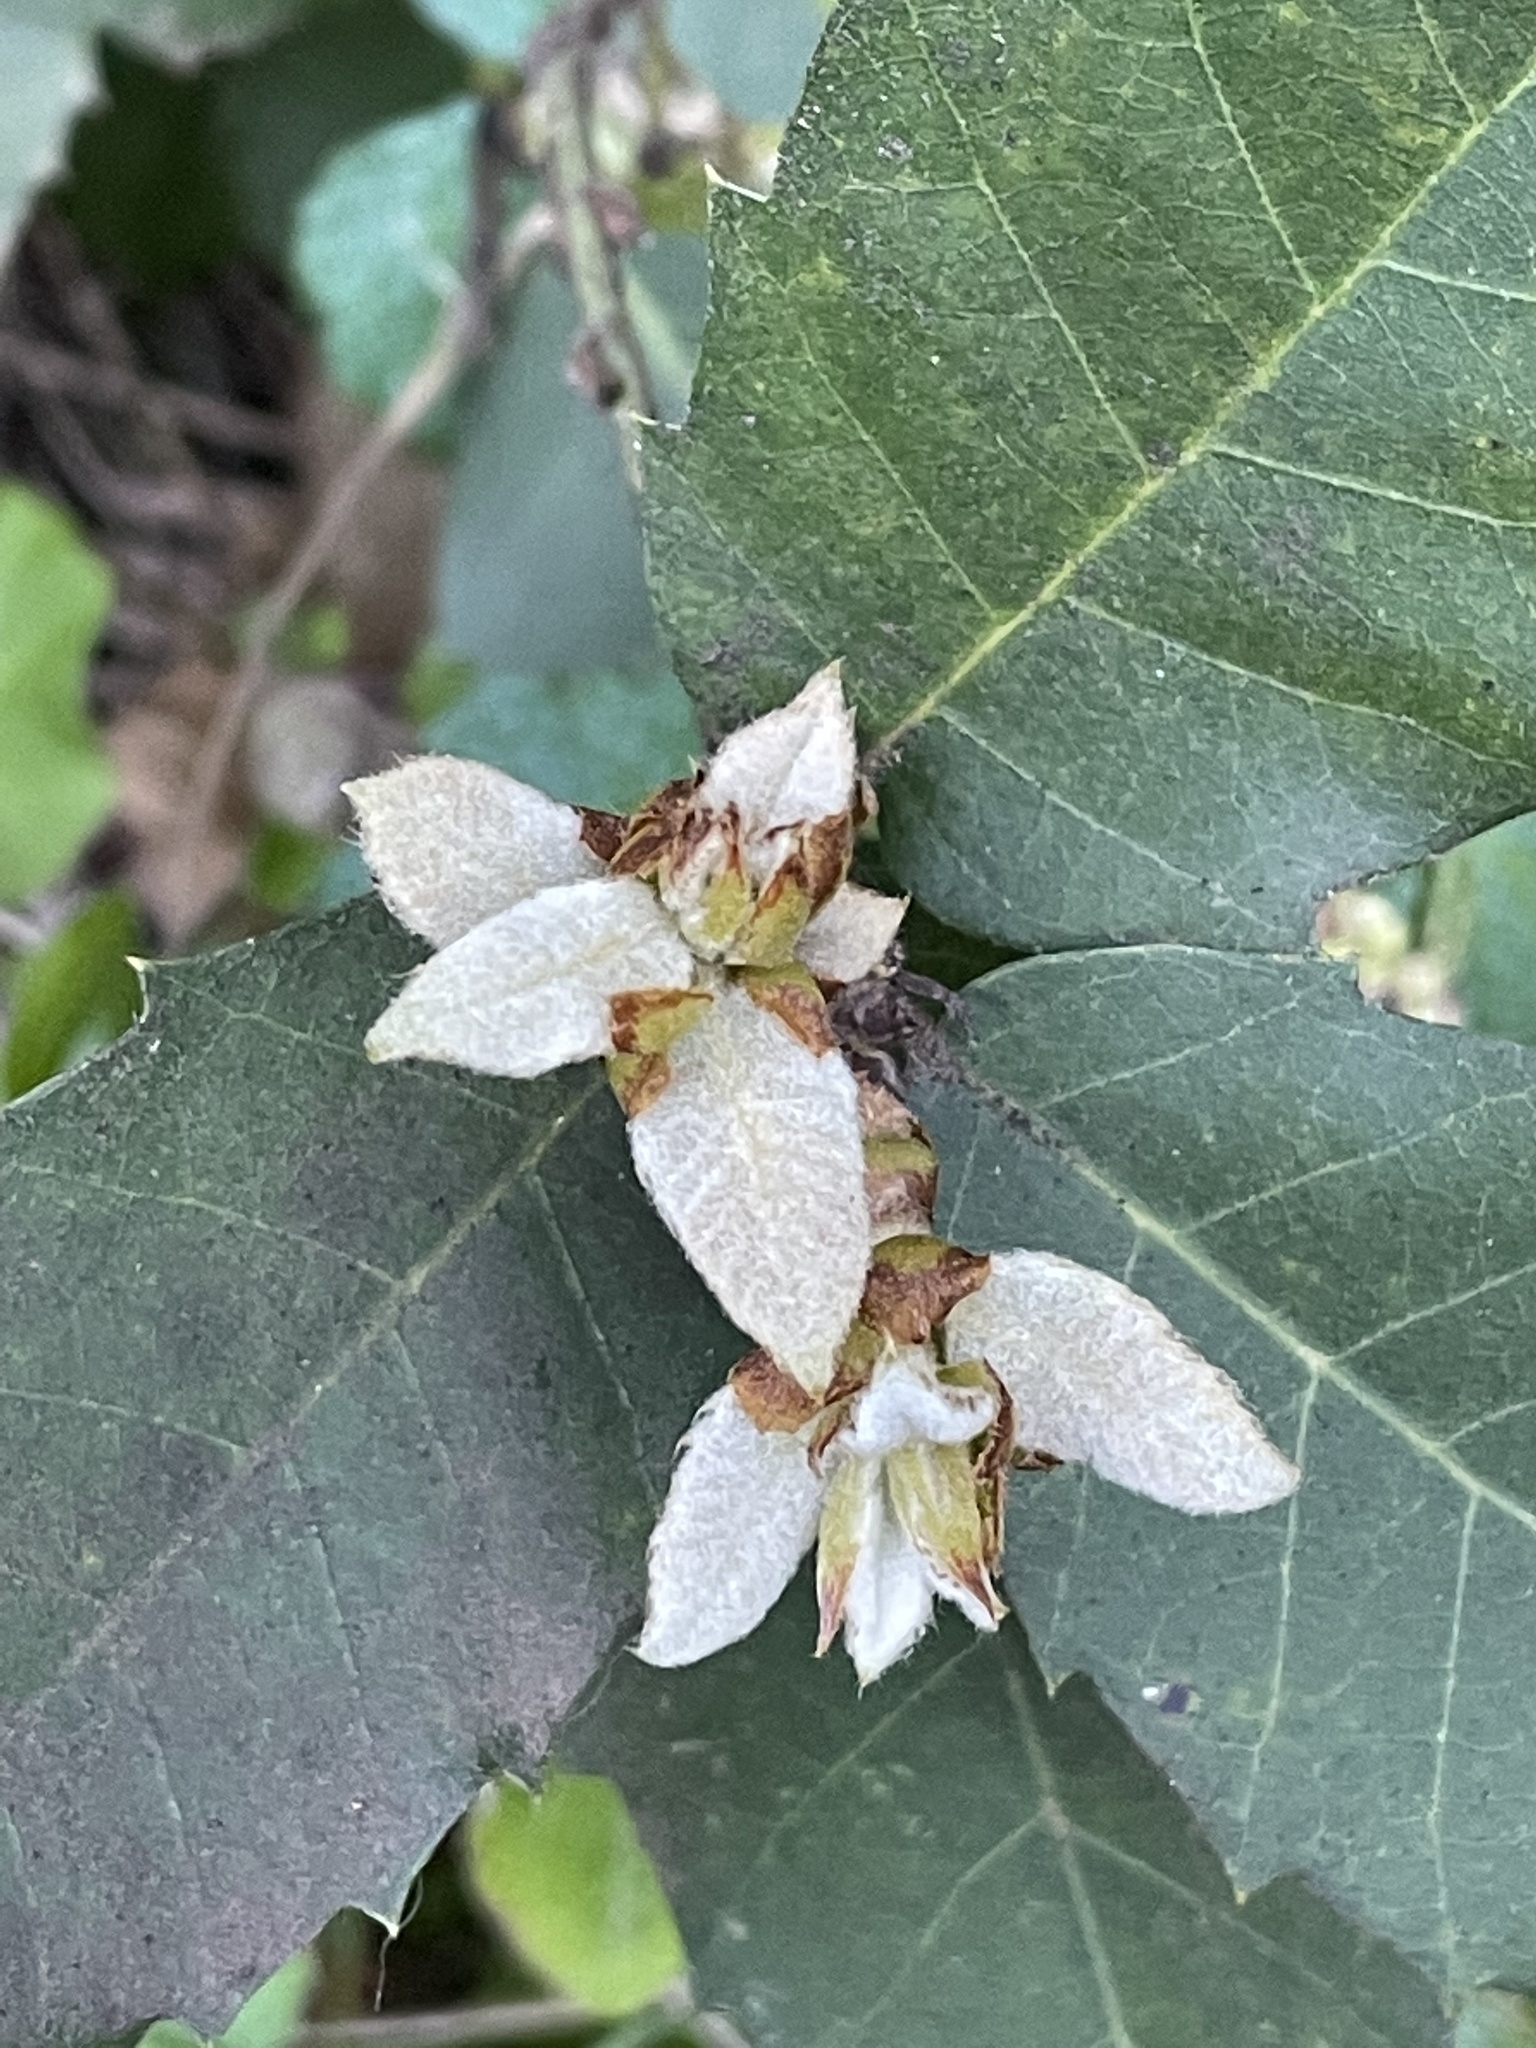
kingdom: Plantae
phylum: Tracheophyta
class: Magnoliopsida
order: Fagales
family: Fagaceae
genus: Notholithocarpus
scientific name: Notholithocarpus densiflorus
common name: Tan bark oak
